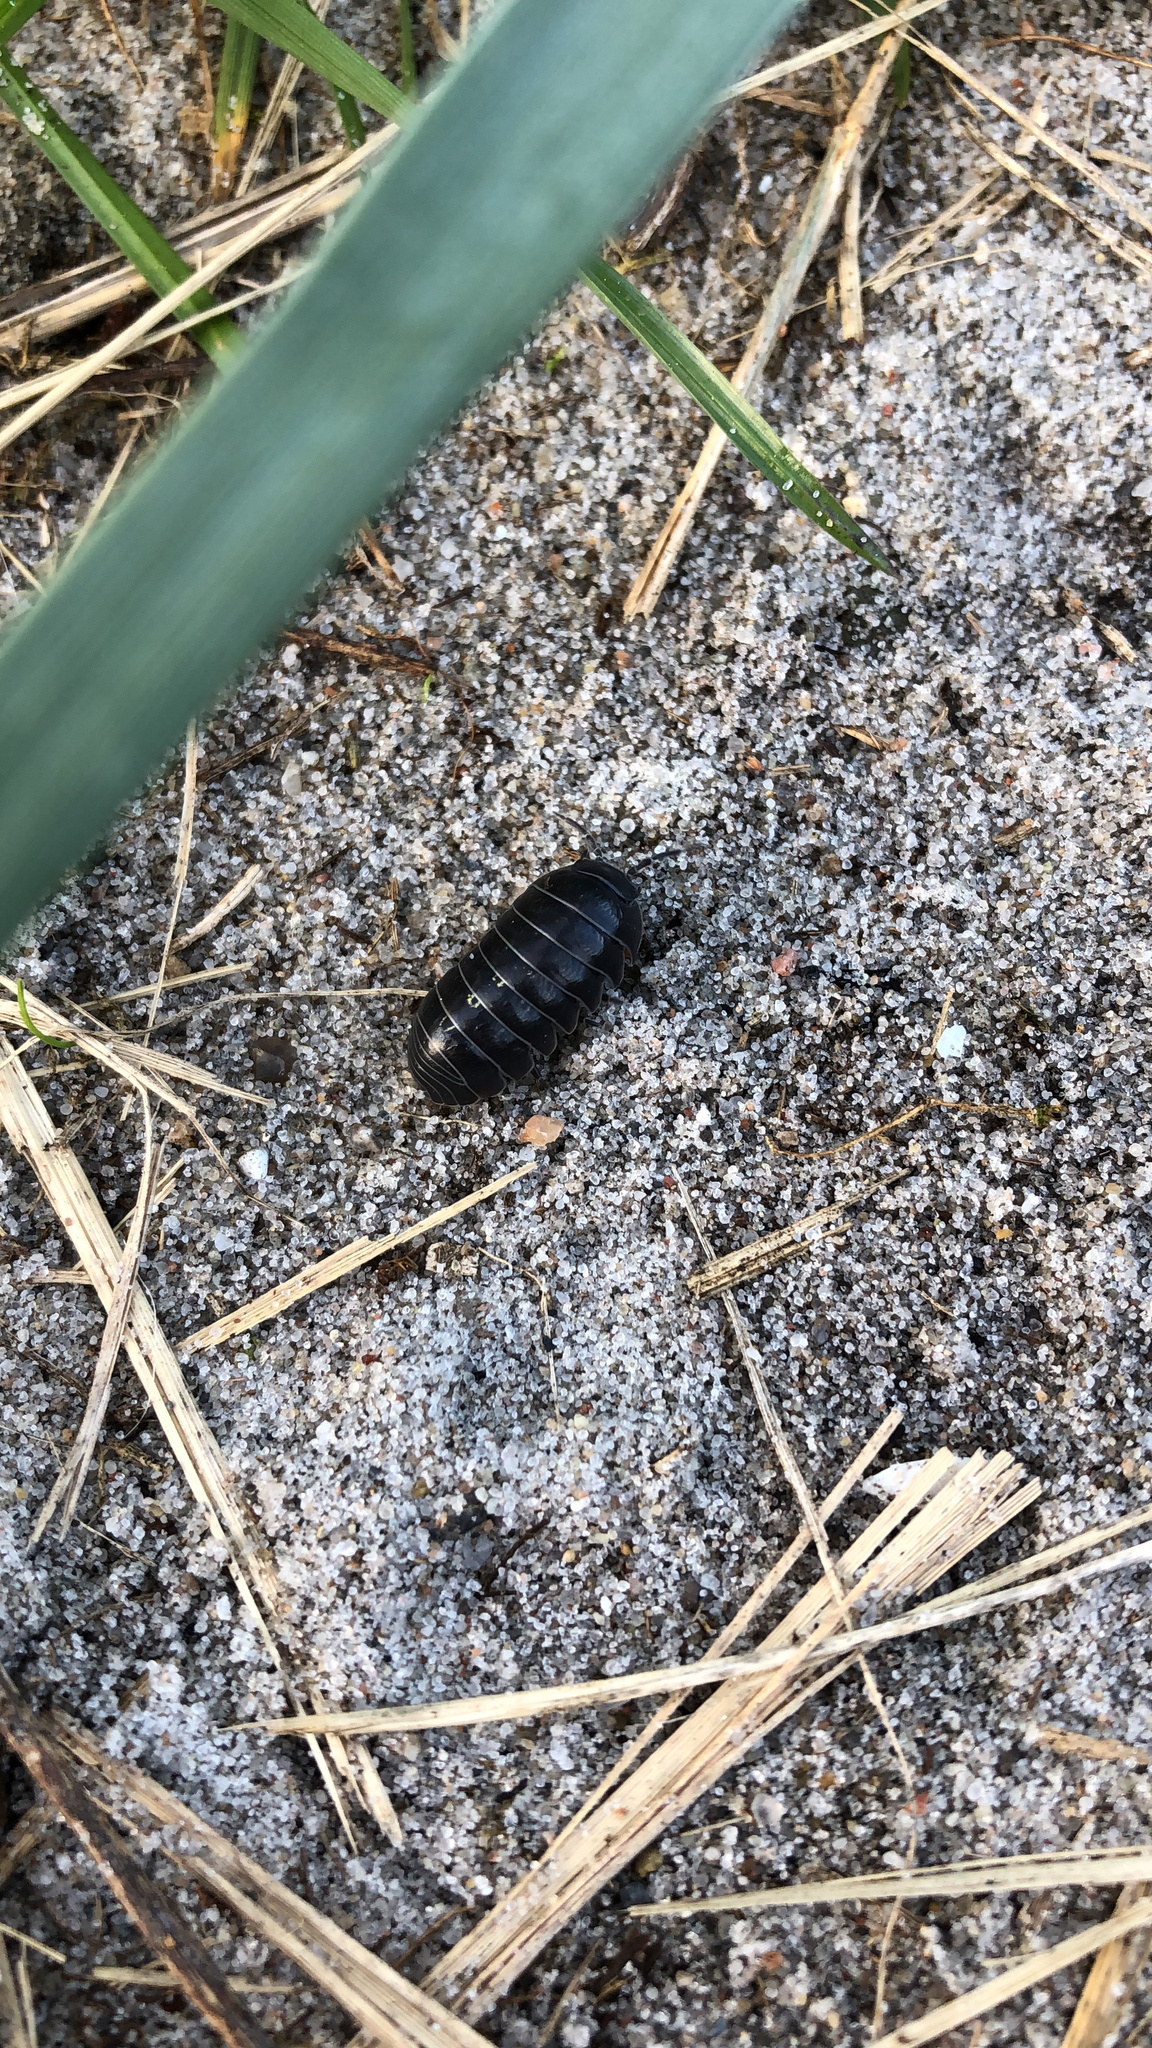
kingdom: Animalia
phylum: Arthropoda
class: Malacostraca
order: Isopoda
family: Armadillidiidae
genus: Armadillidium
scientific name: Armadillidium vulgare
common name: Common pill woodlouse
